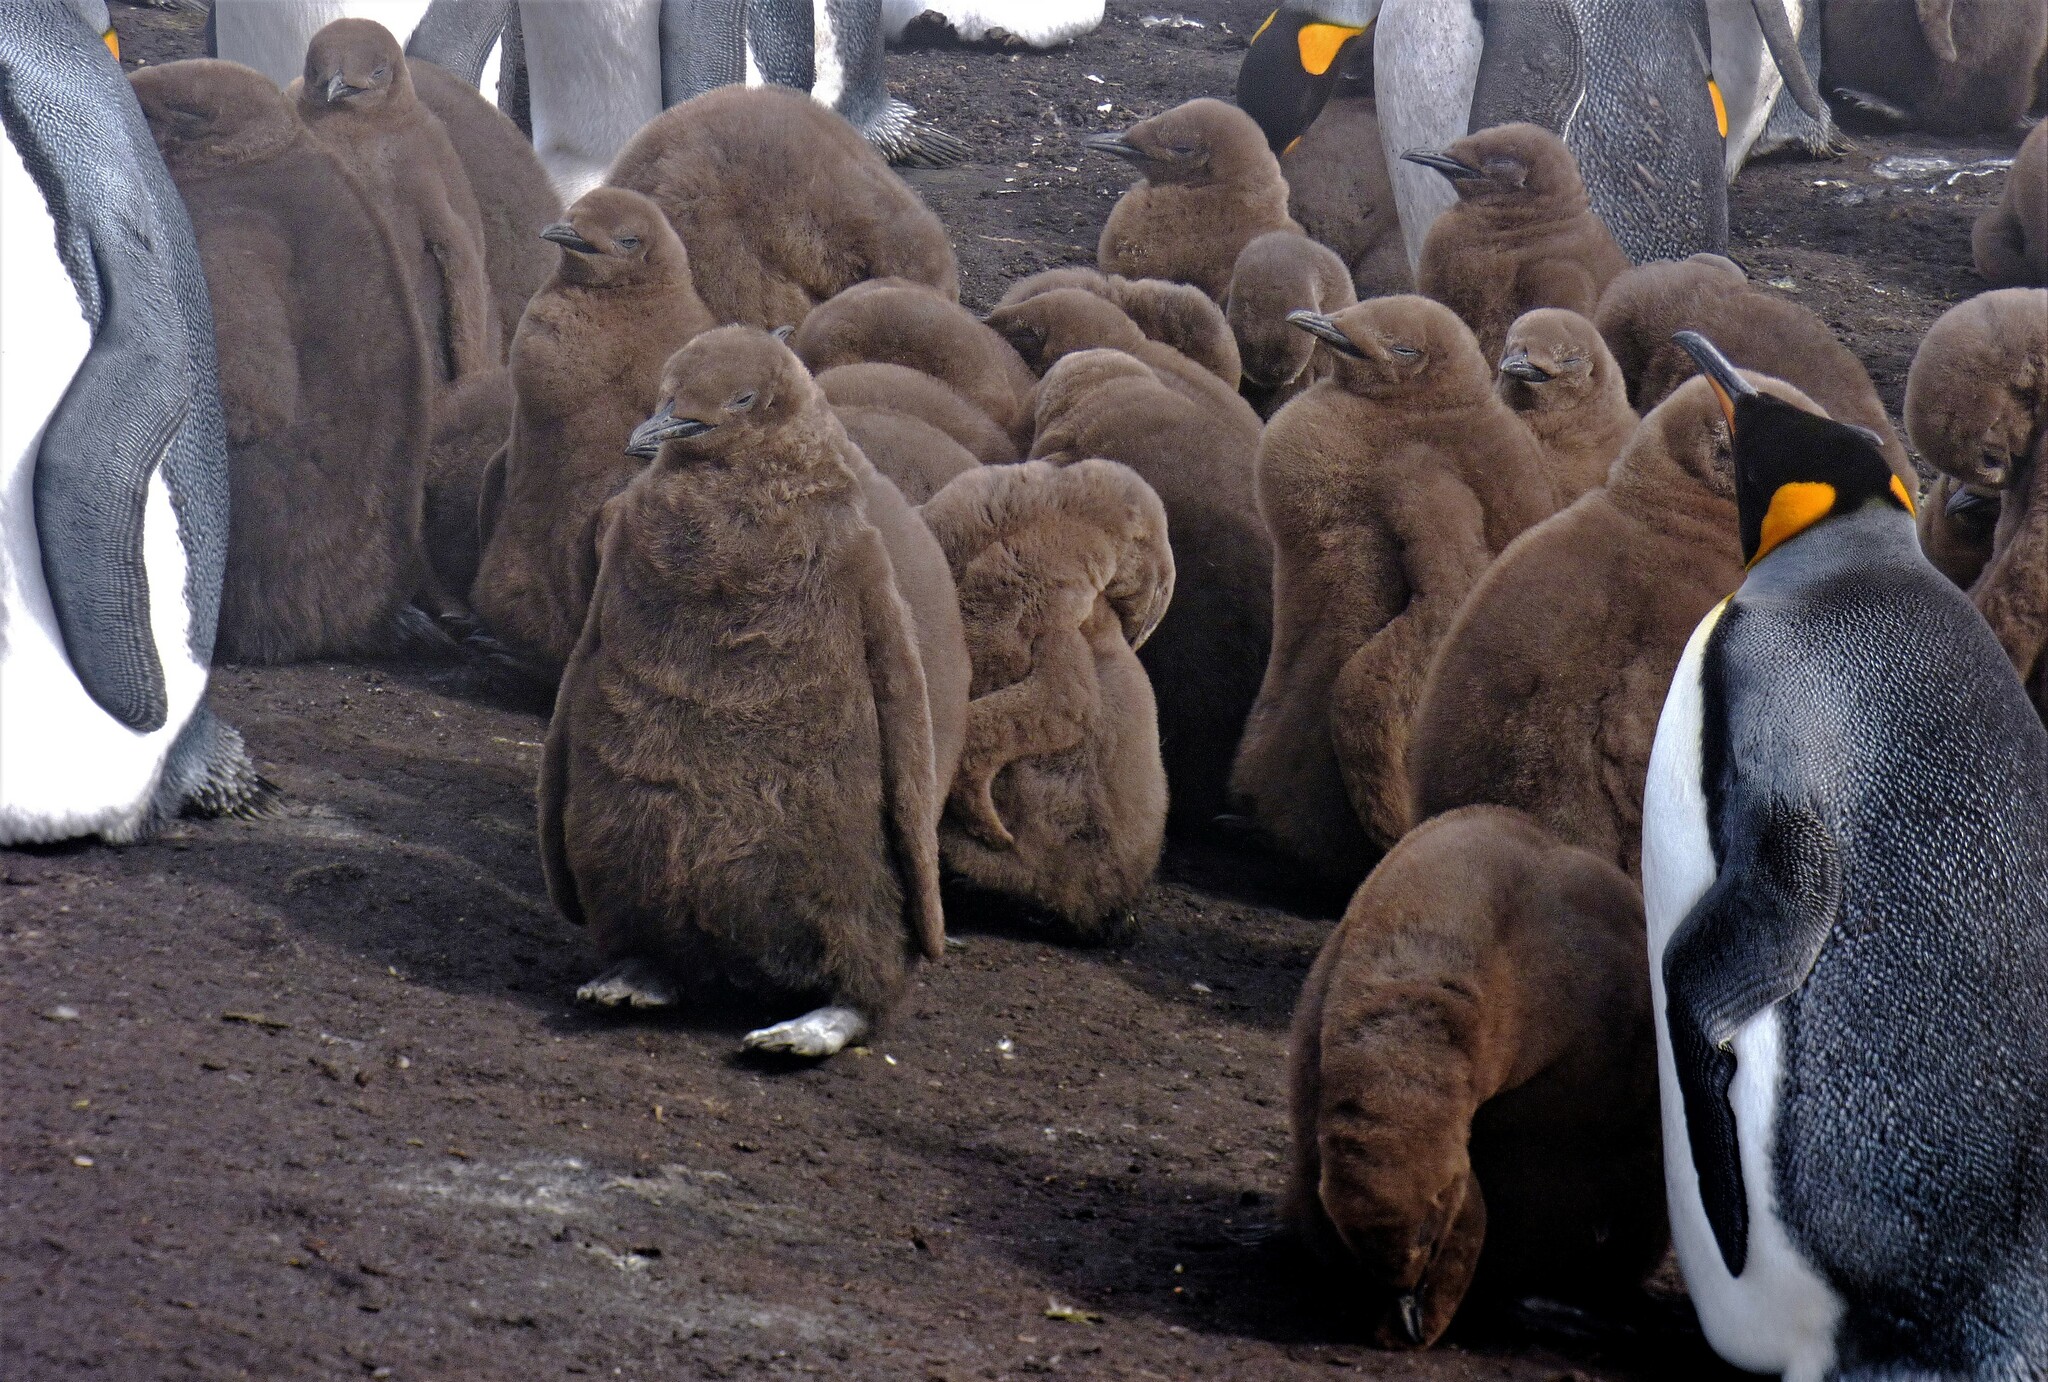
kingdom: Animalia
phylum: Chordata
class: Aves
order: Sphenisciformes
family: Spheniscidae
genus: Aptenodytes
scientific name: Aptenodytes patagonicus
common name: King penguin
